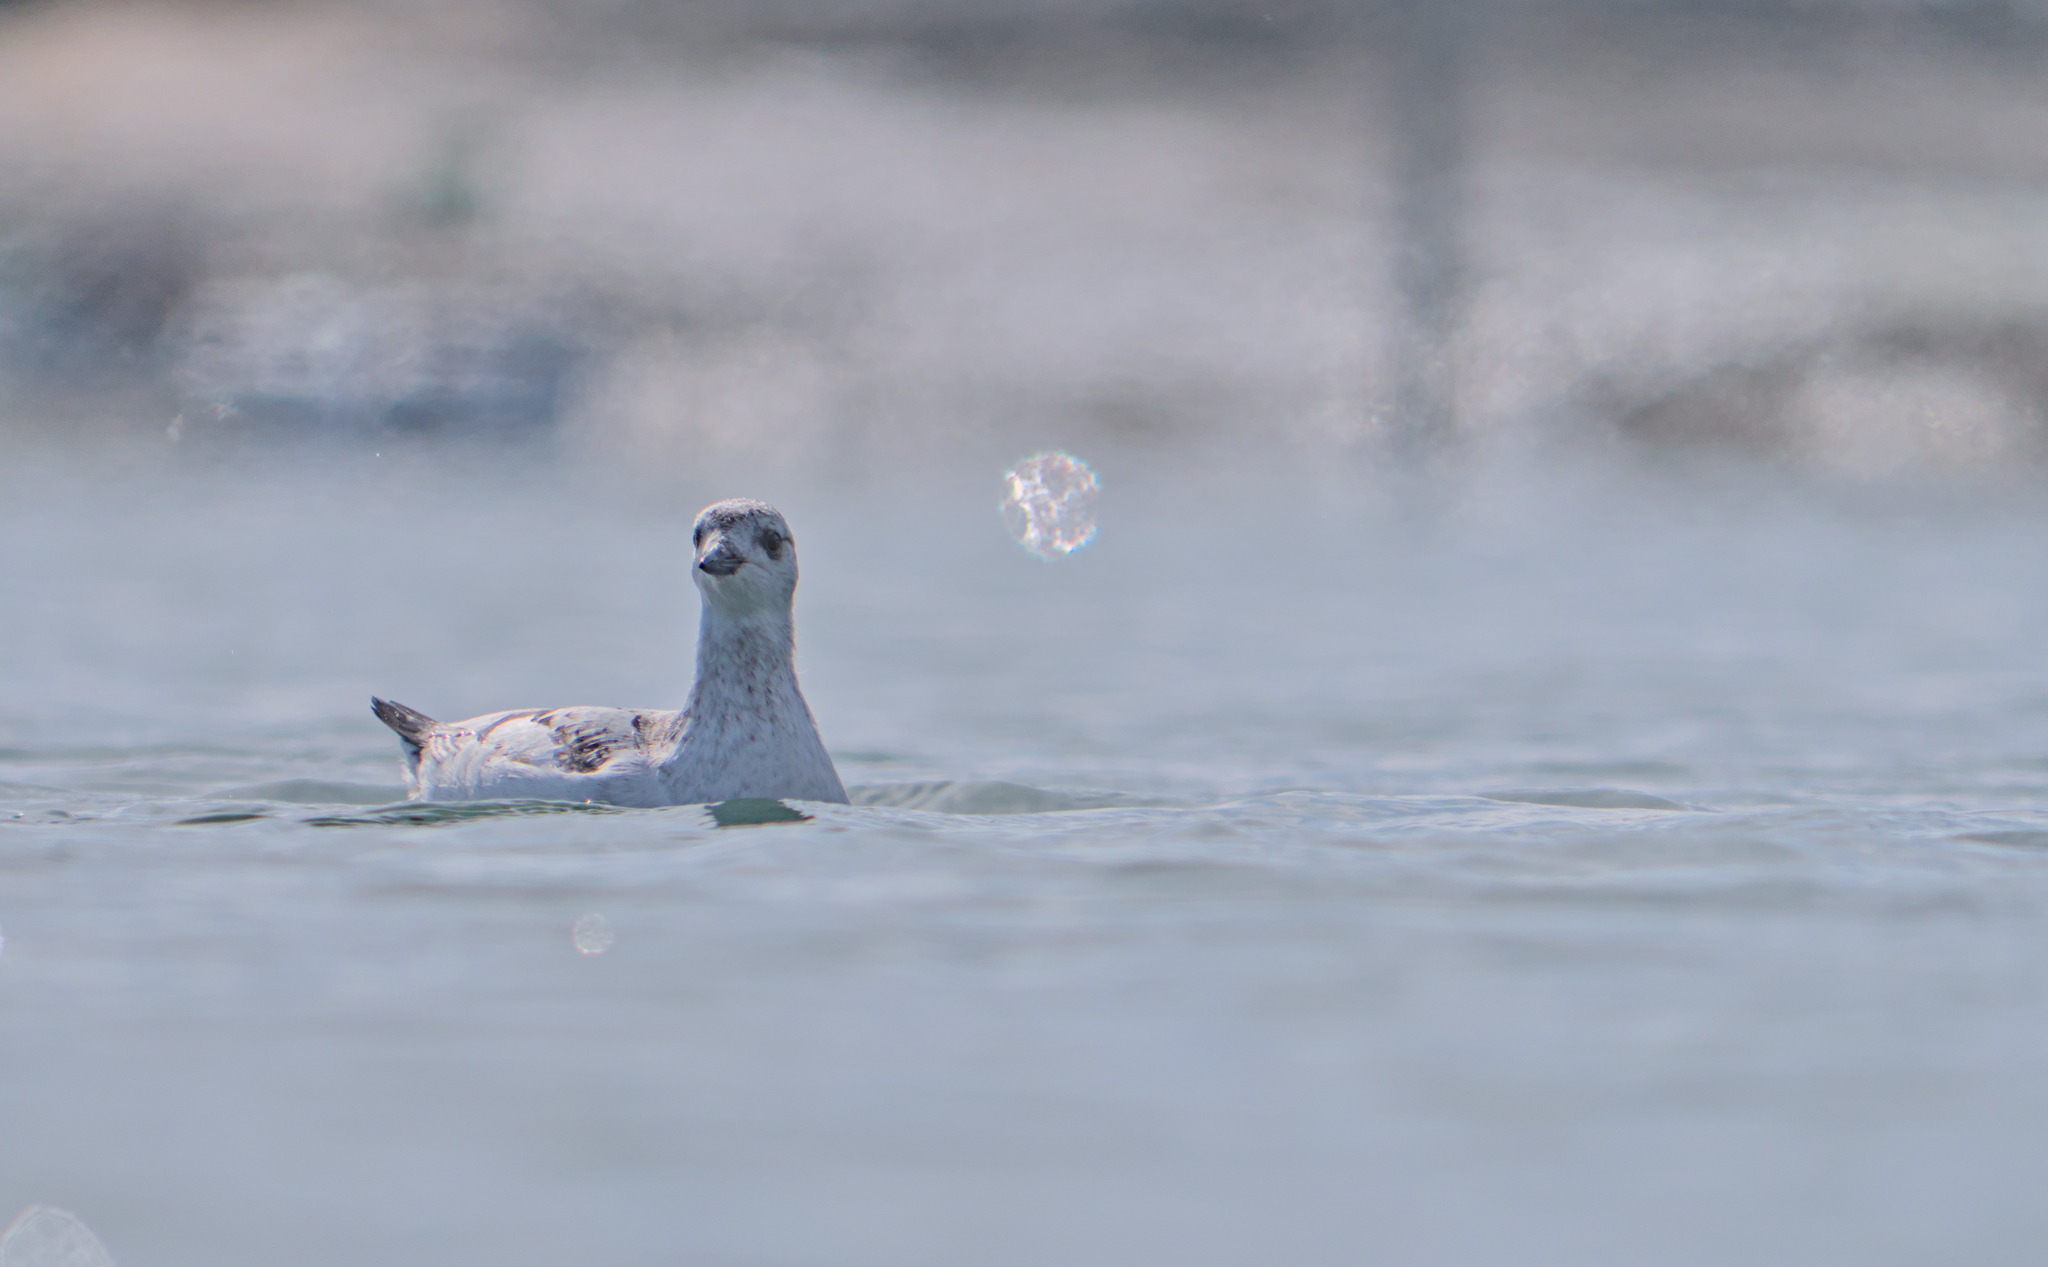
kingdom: Animalia
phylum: Chordata
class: Aves
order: Charadriiformes
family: Alcidae
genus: Cepphus
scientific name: Cepphus grylle
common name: Black guillemot
